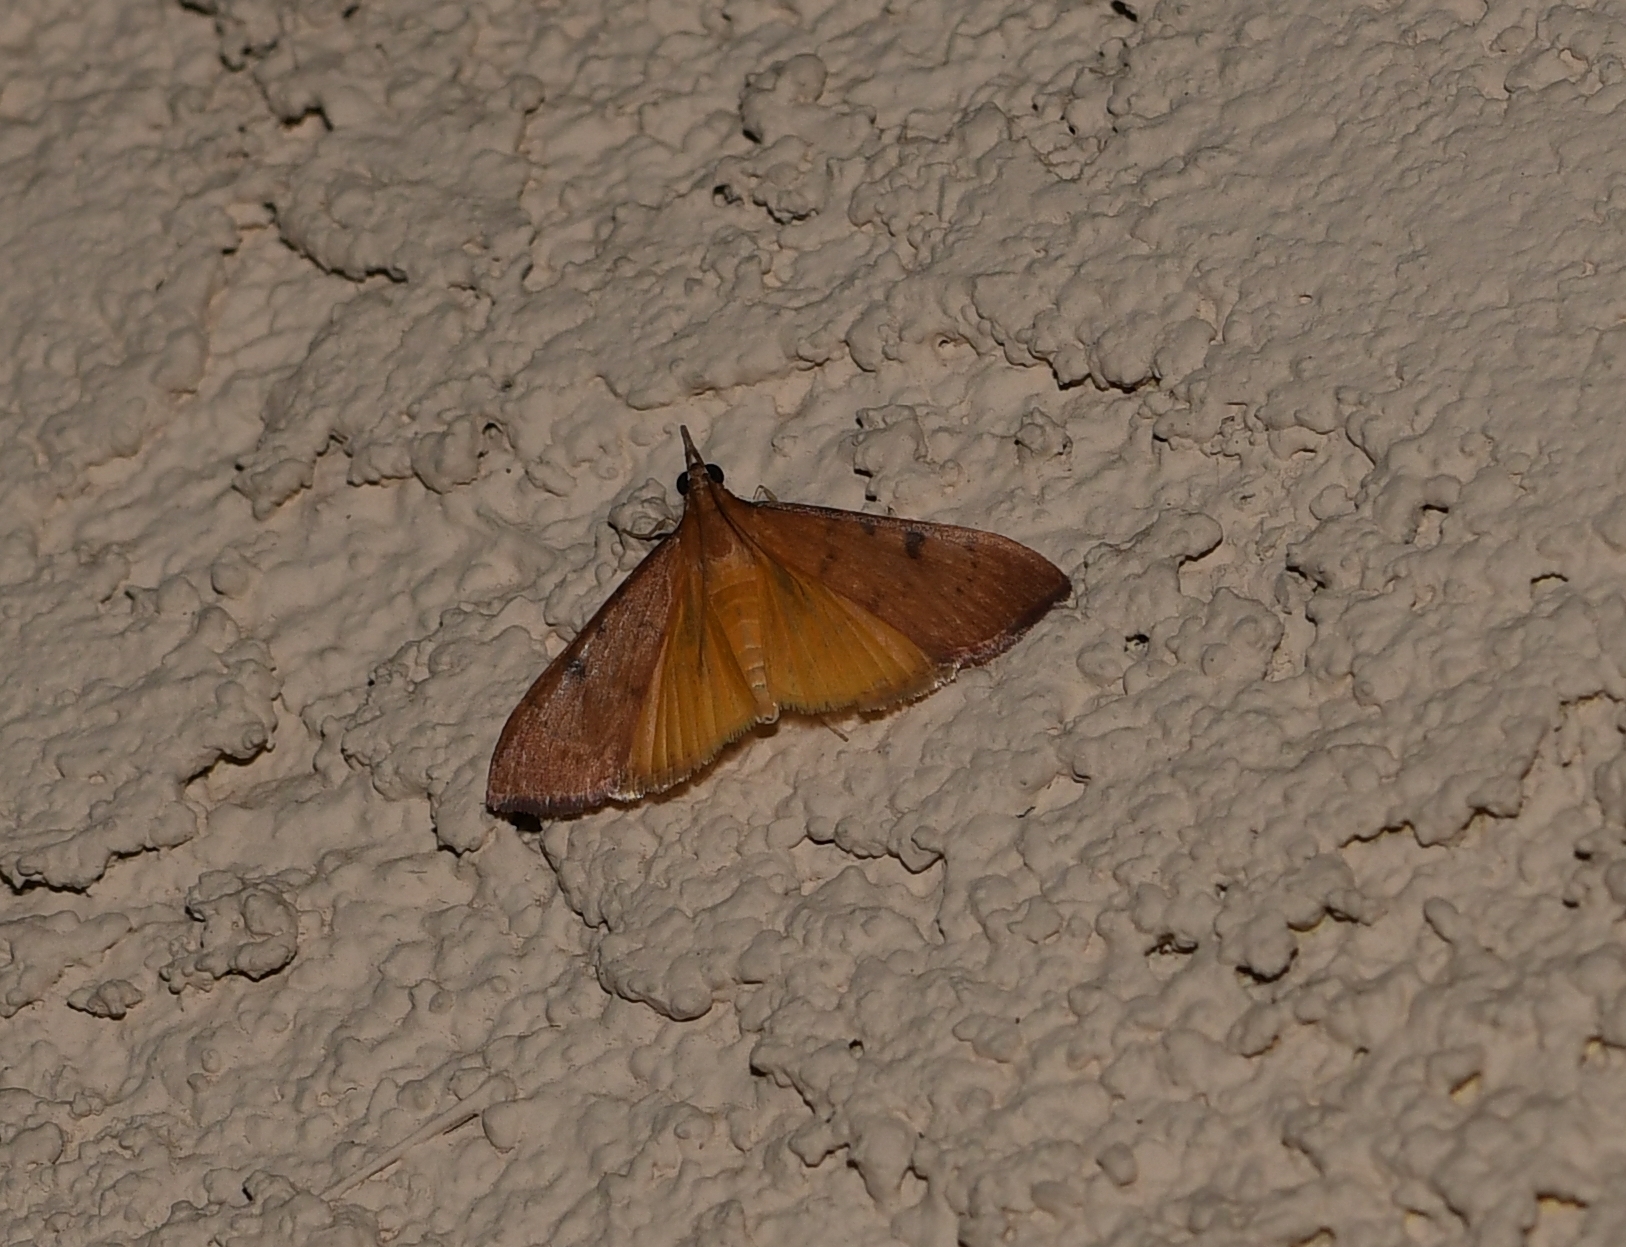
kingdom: Animalia
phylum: Arthropoda
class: Insecta
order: Lepidoptera
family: Crambidae
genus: Uresiphita
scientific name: Uresiphita reversalis
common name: Genista broom moth
